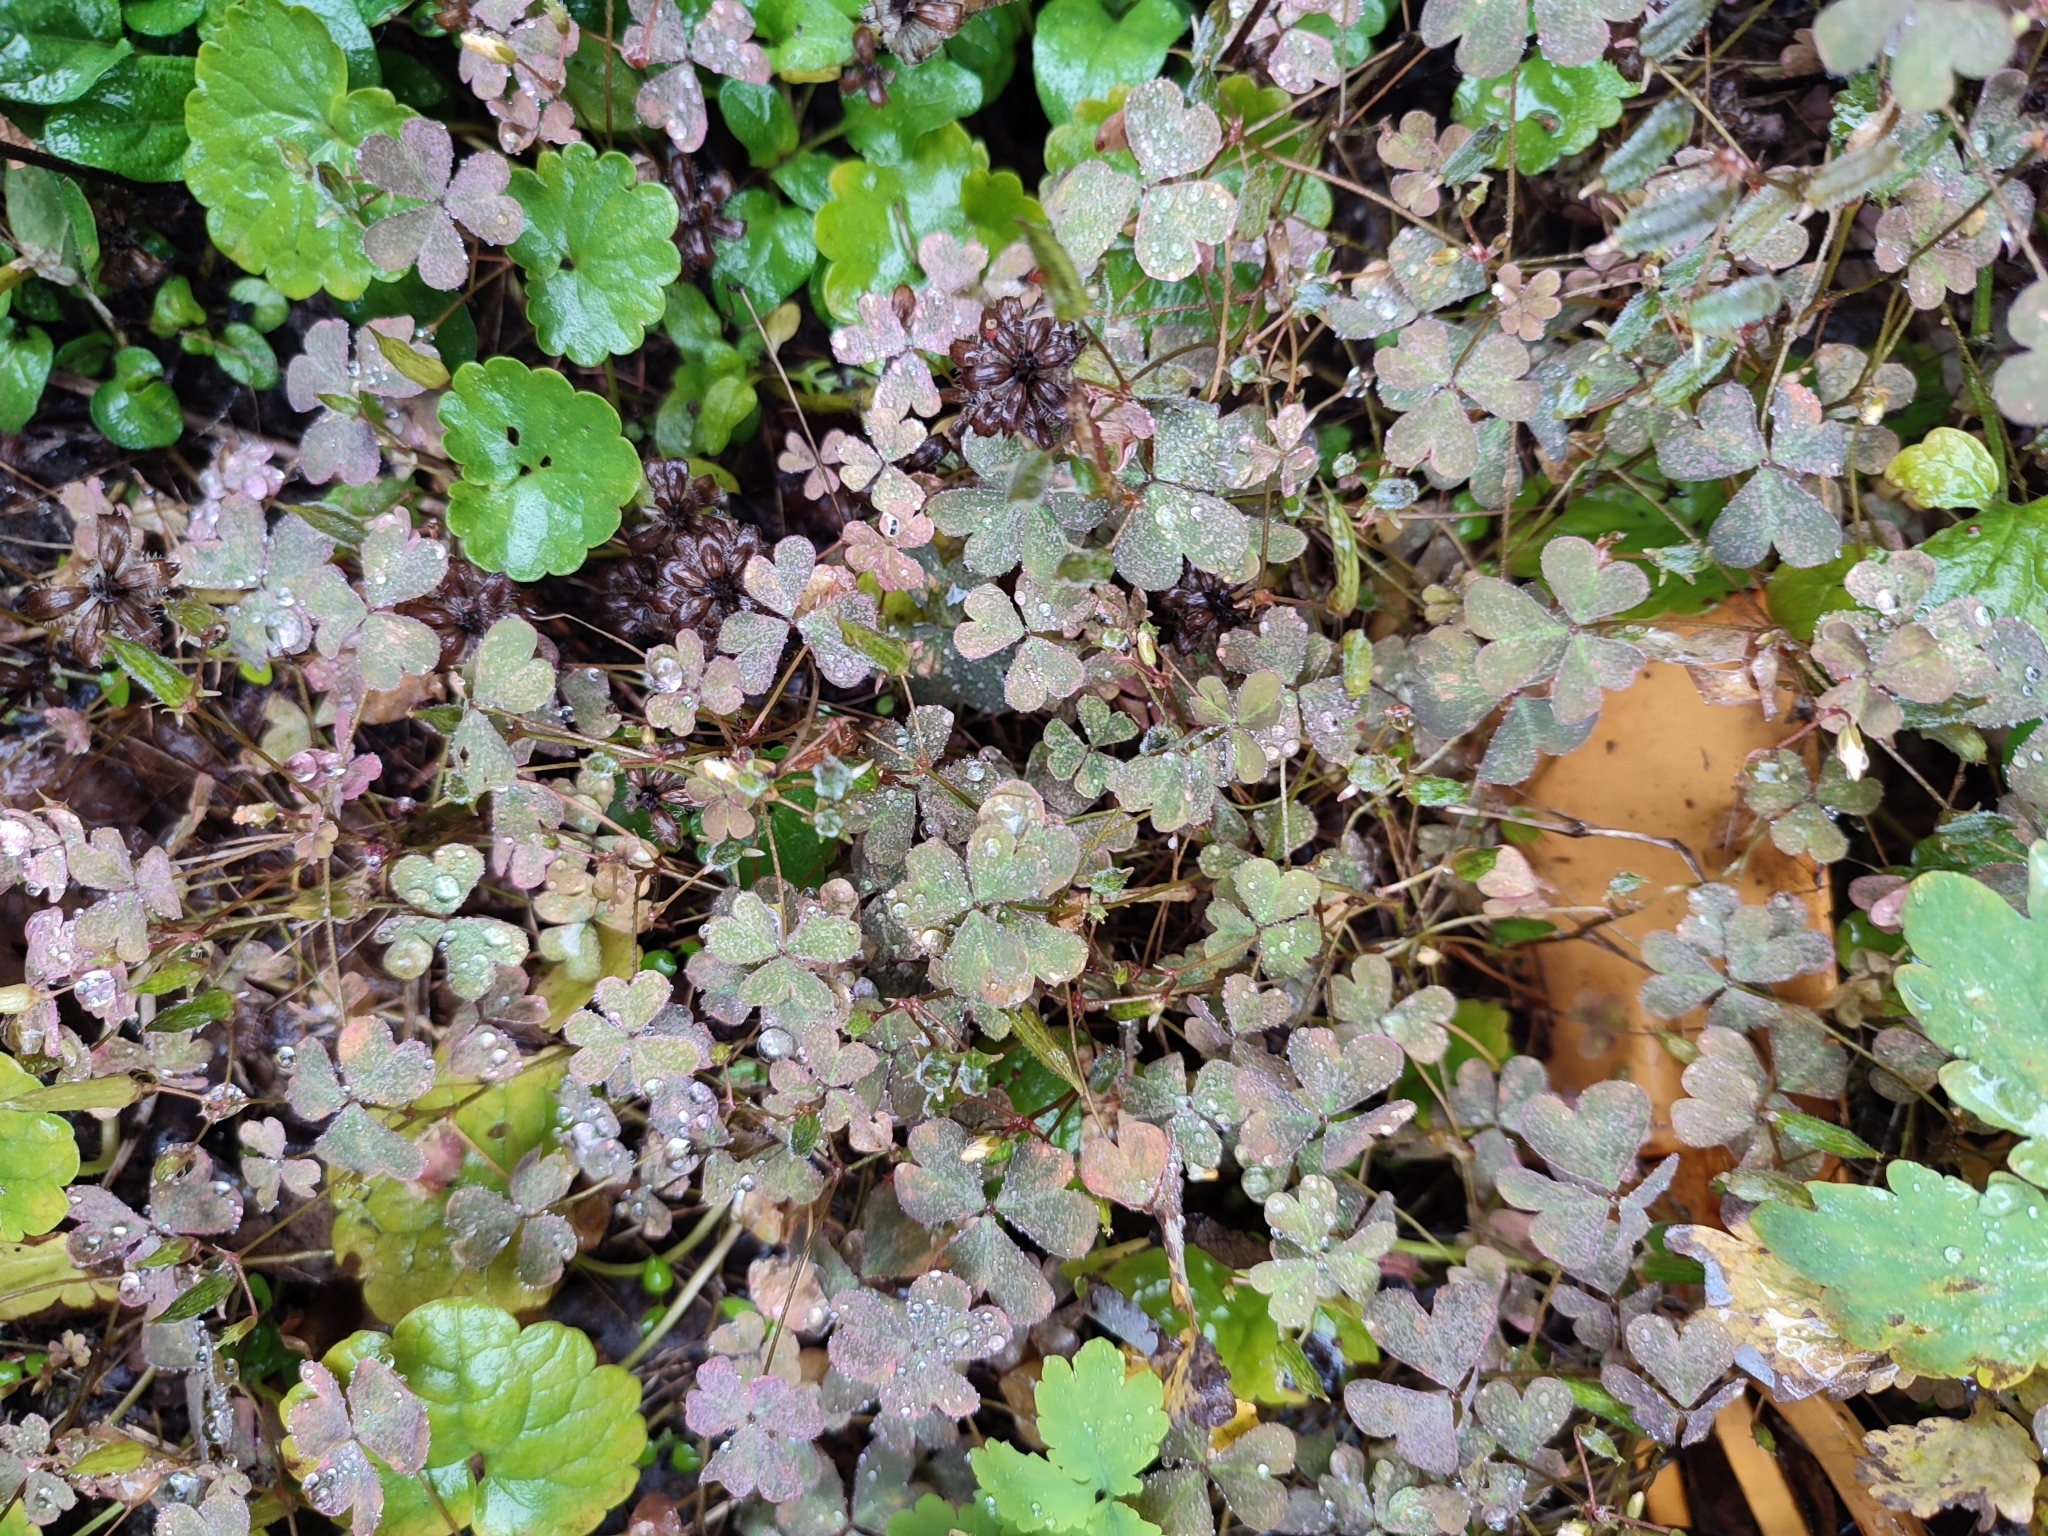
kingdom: Plantae
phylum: Tracheophyta
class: Magnoliopsida
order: Oxalidales
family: Oxalidaceae
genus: Oxalis
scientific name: Oxalis corniculata
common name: Procumbent yellow-sorrel
